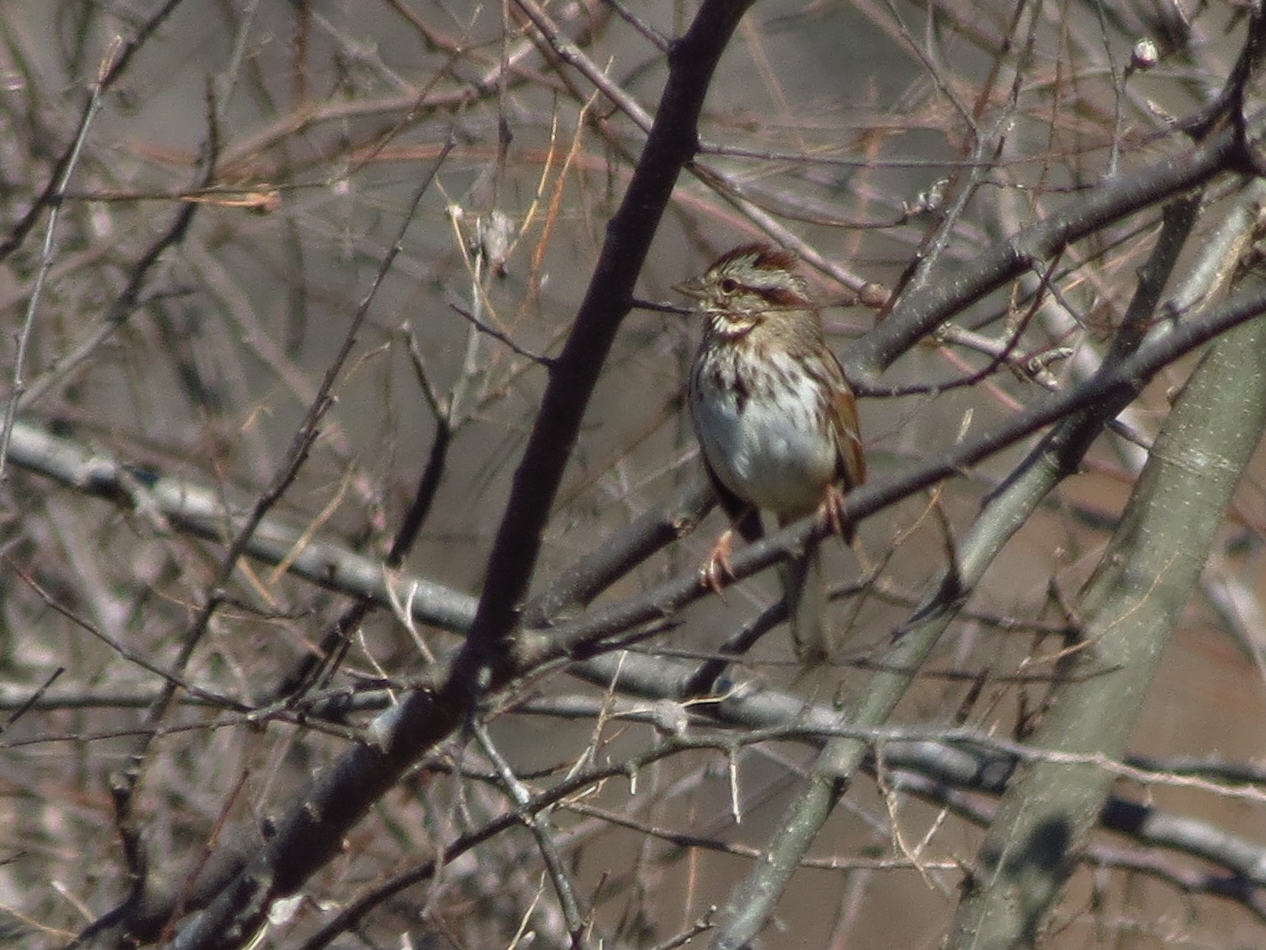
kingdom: Animalia
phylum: Chordata
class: Aves
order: Passeriformes
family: Passerellidae
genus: Melospiza
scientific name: Melospiza melodia
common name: Song sparrow
